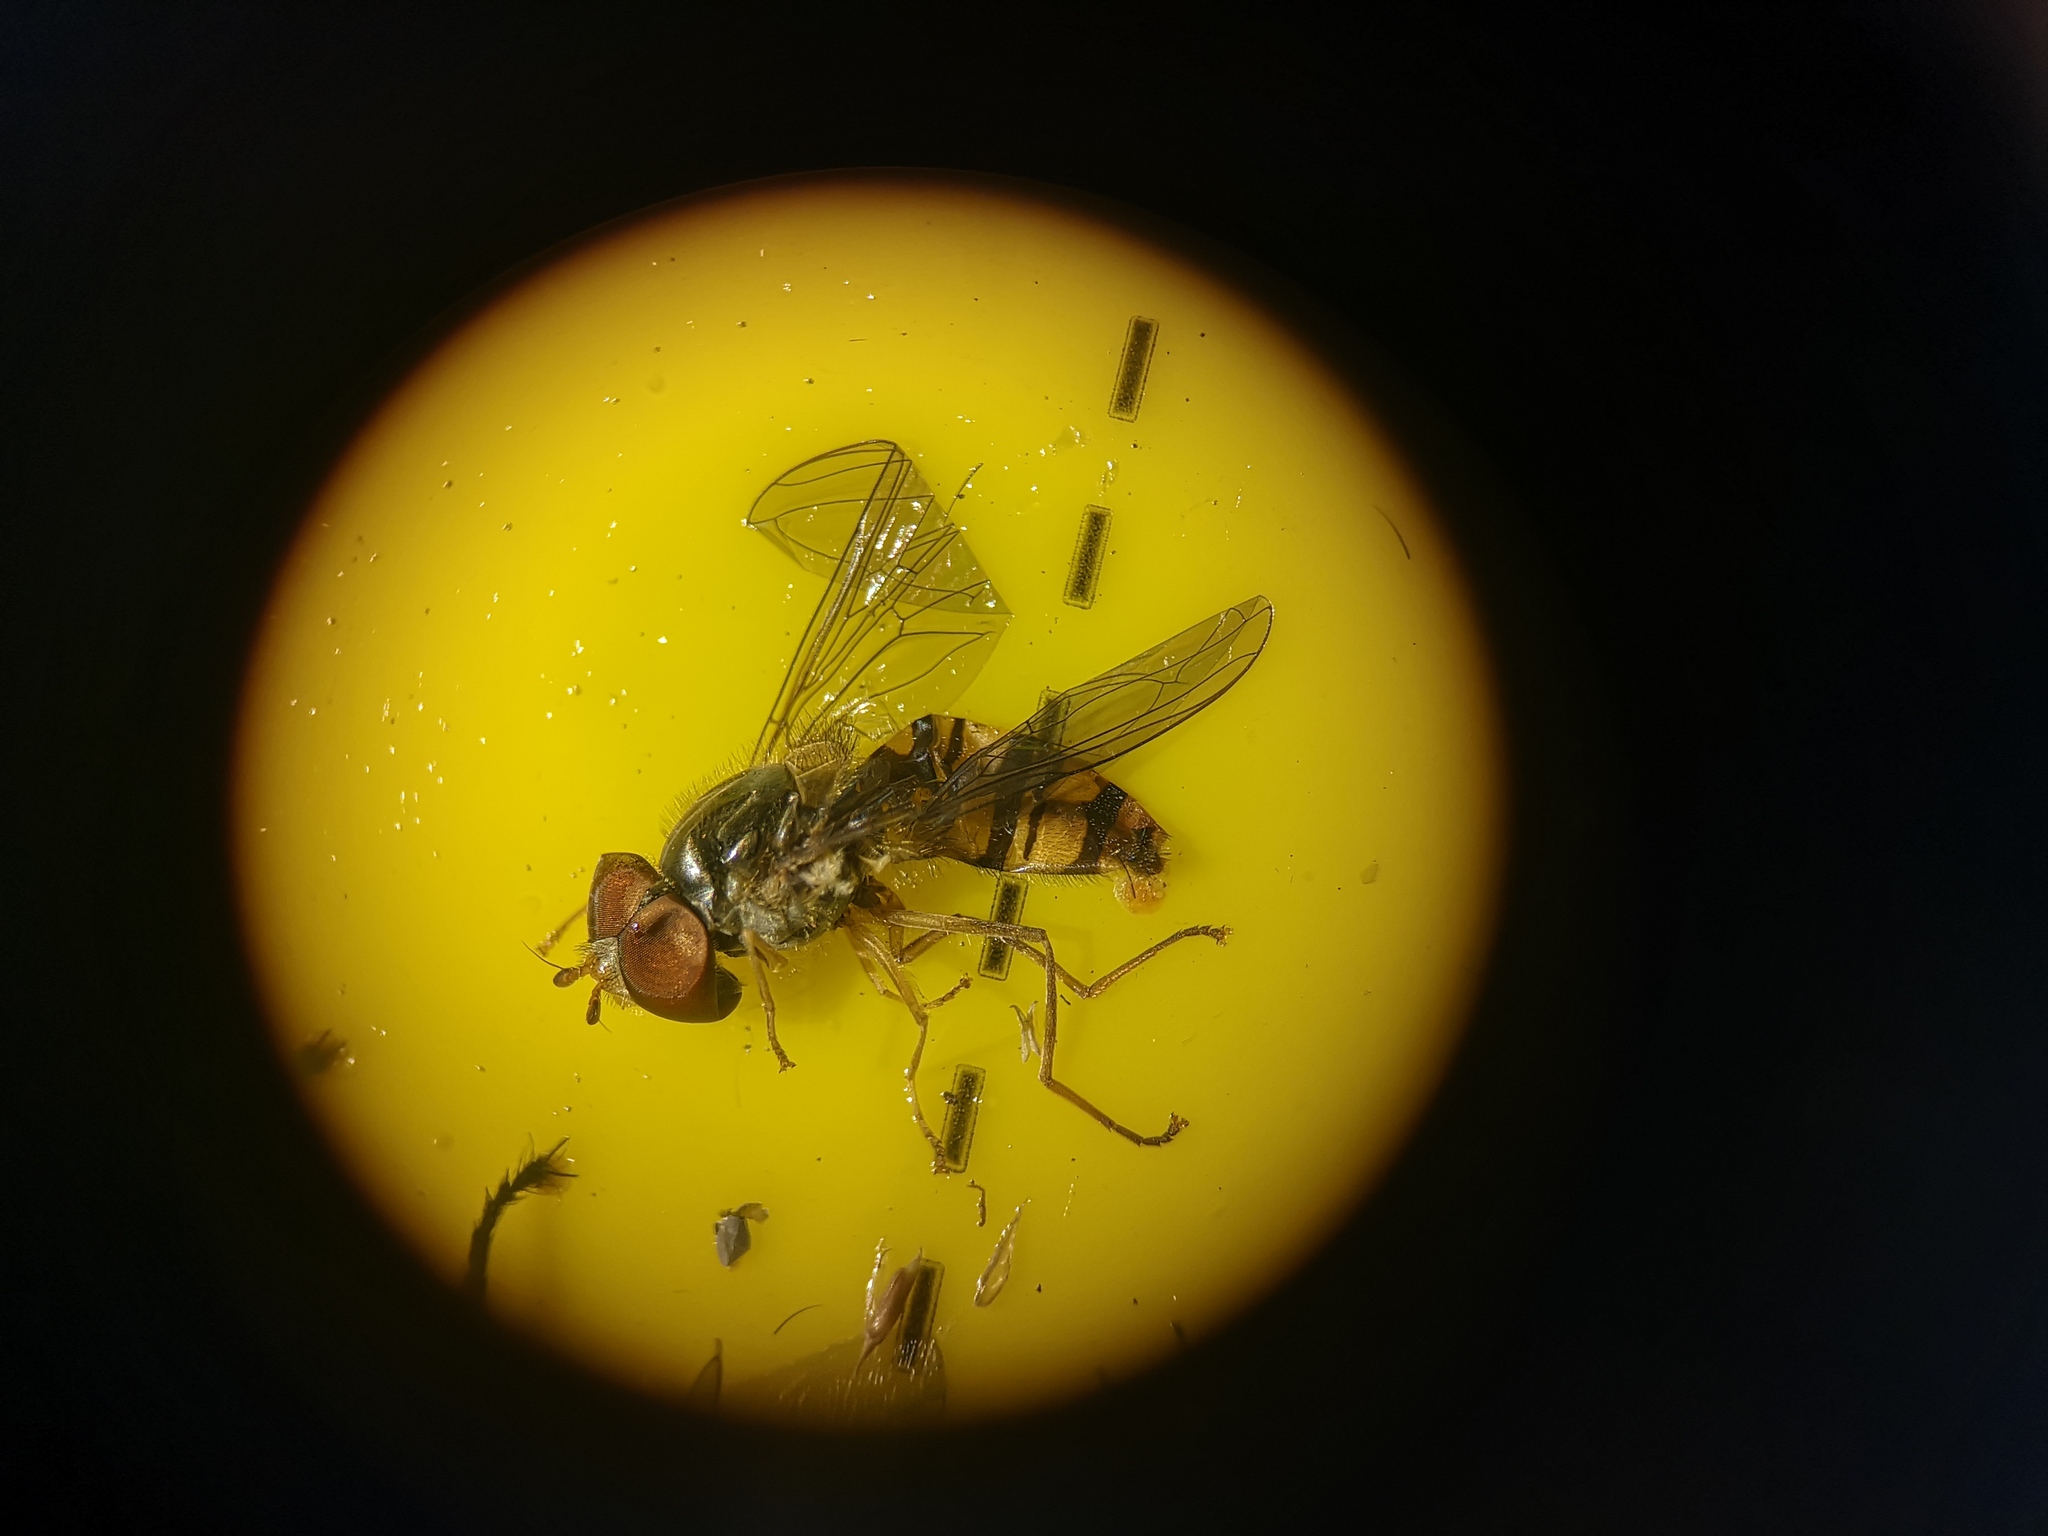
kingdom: Animalia
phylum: Arthropoda
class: Insecta
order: Diptera
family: Syrphidae
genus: Episyrphus
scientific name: Episyrphus balteatus
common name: Marmalade hoverfly
